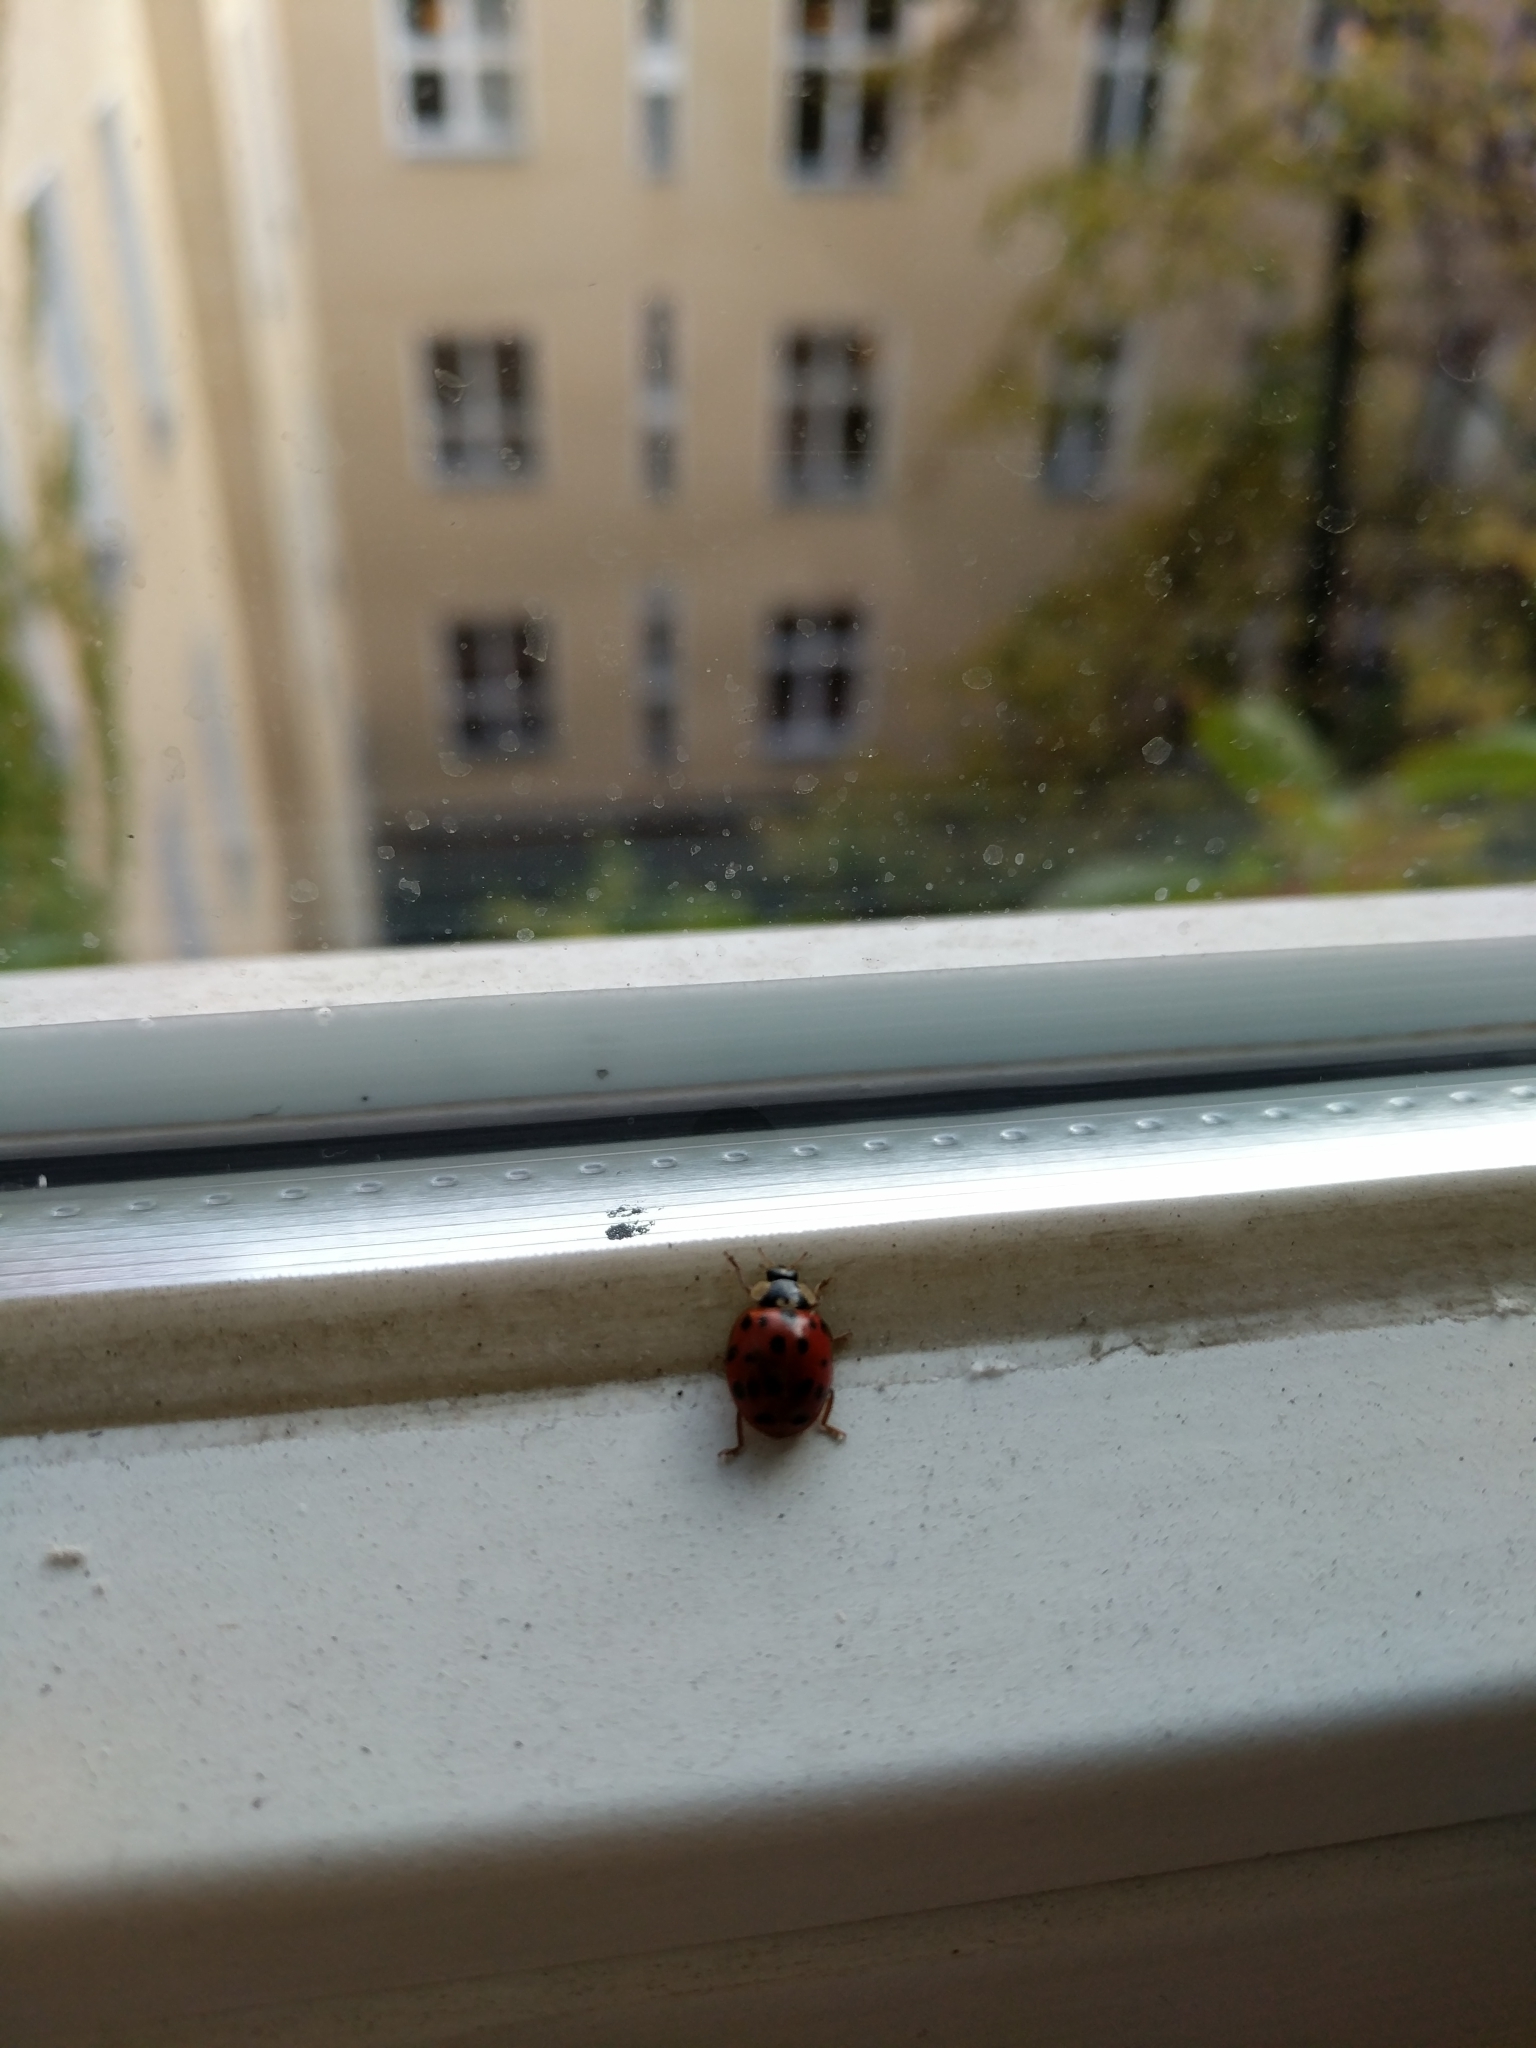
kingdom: Animalia
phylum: Arthropoda
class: Insecta
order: Coleoptera
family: Coccinellidae
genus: Harmonia
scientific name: Harmonia axyridis
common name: Harlequin ladybird
